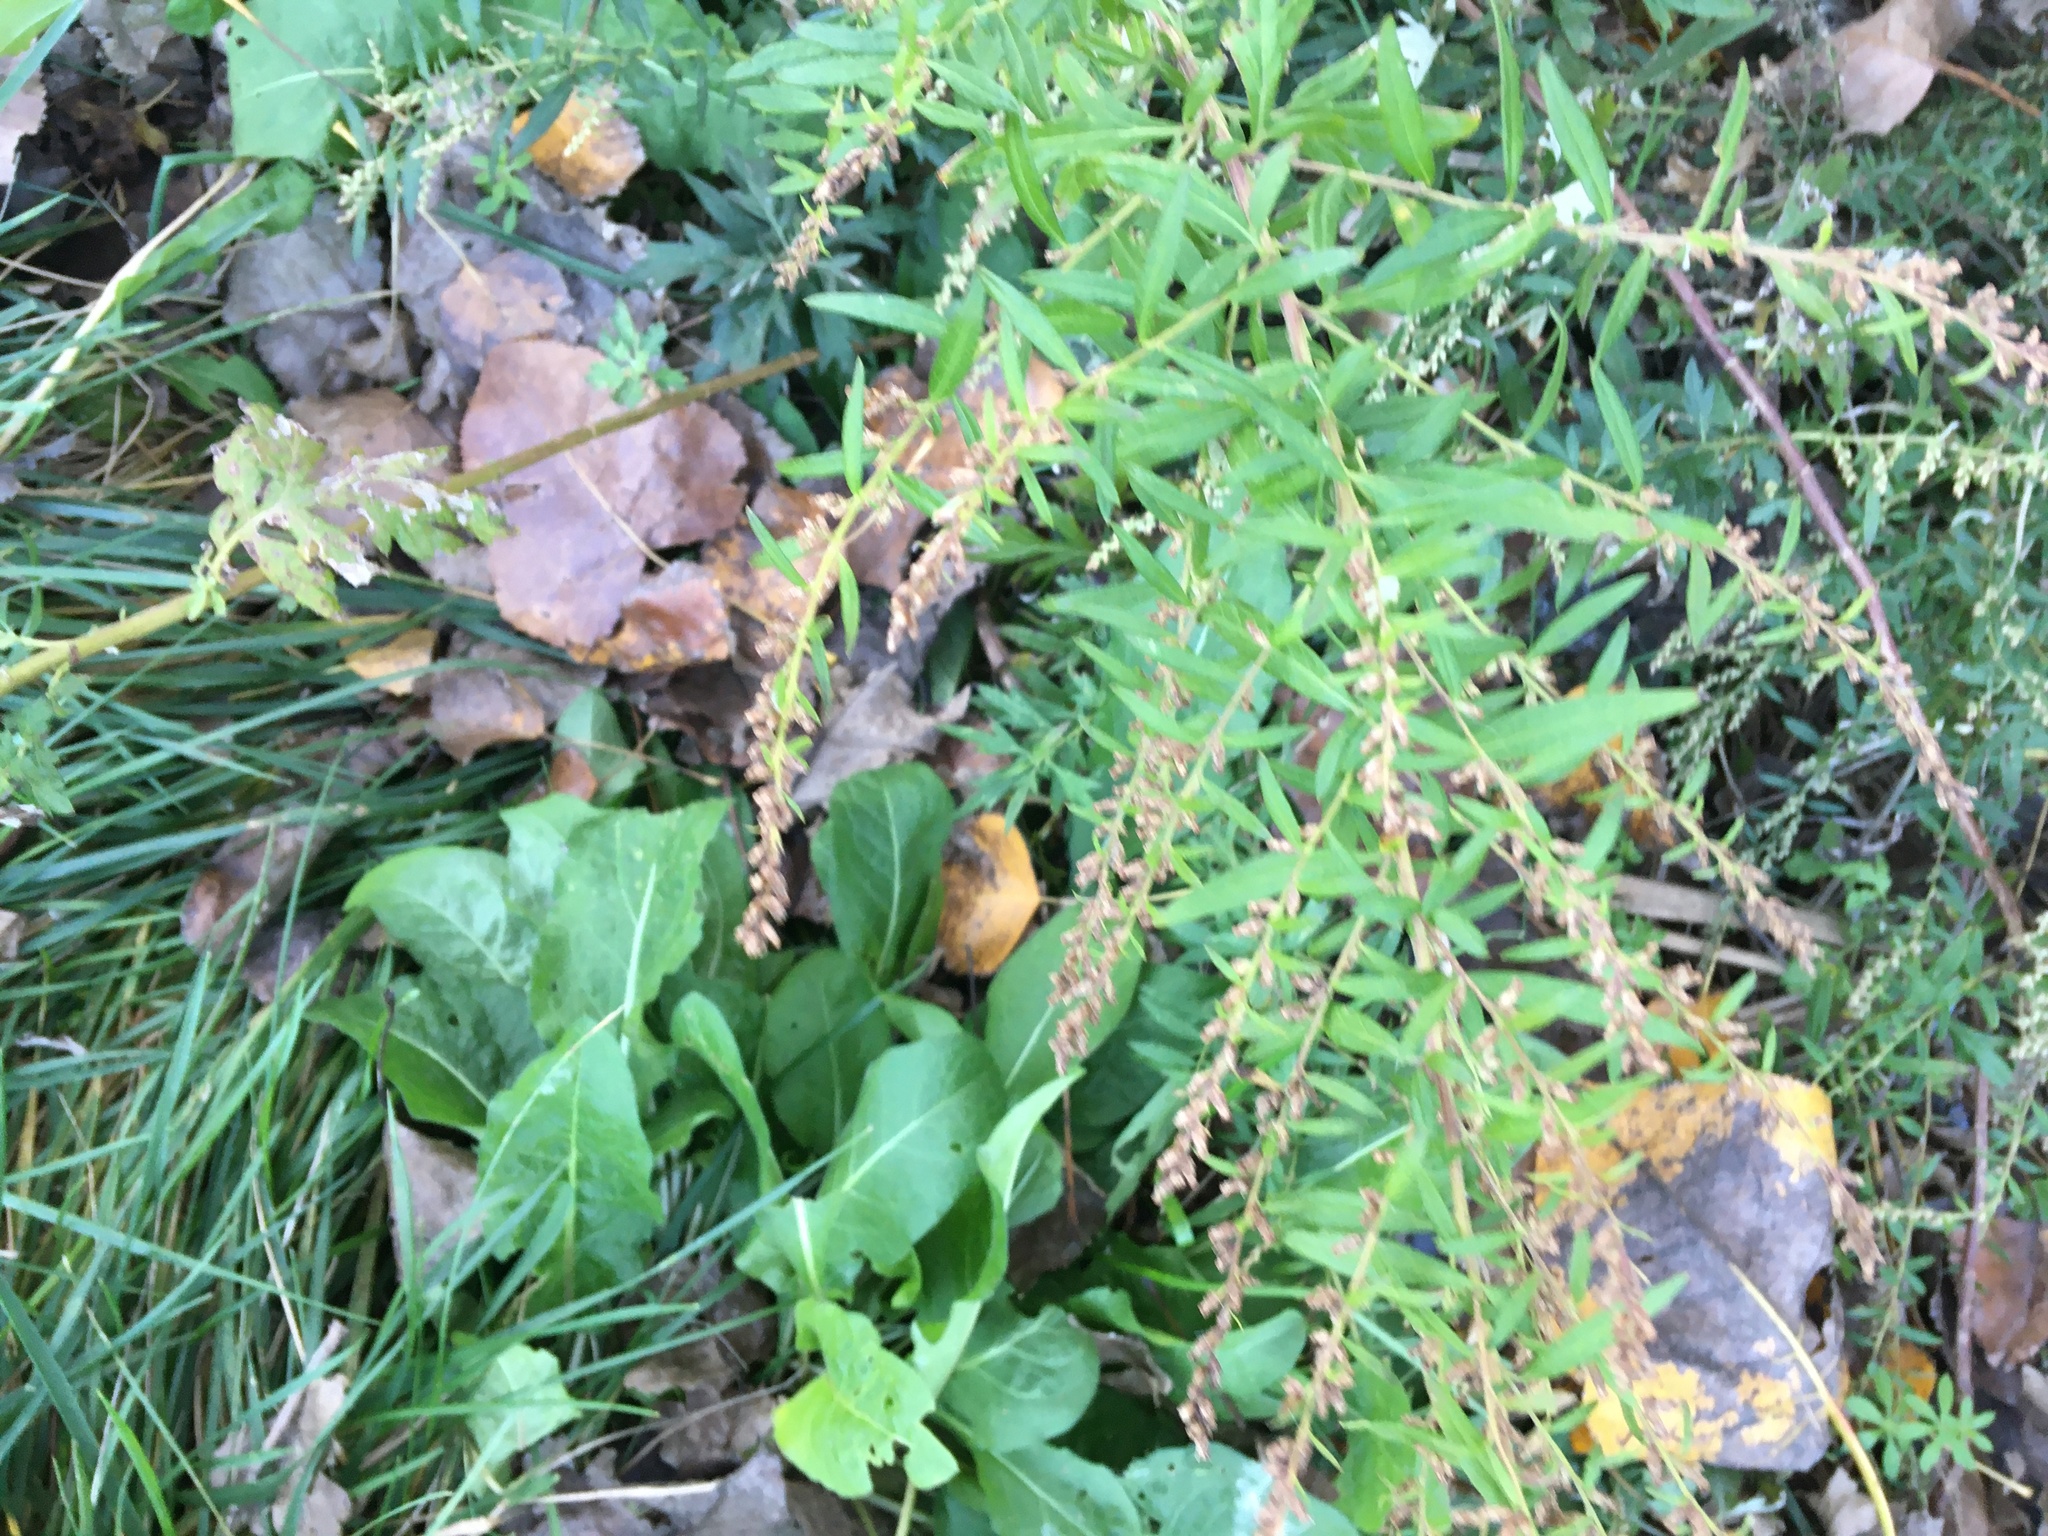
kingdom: Plantae
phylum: Tracheophyta
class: Magnoliopsida
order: Asterales
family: Asteraceae
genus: Artemisia
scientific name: Artemisia vulgaris
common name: Mugwort
